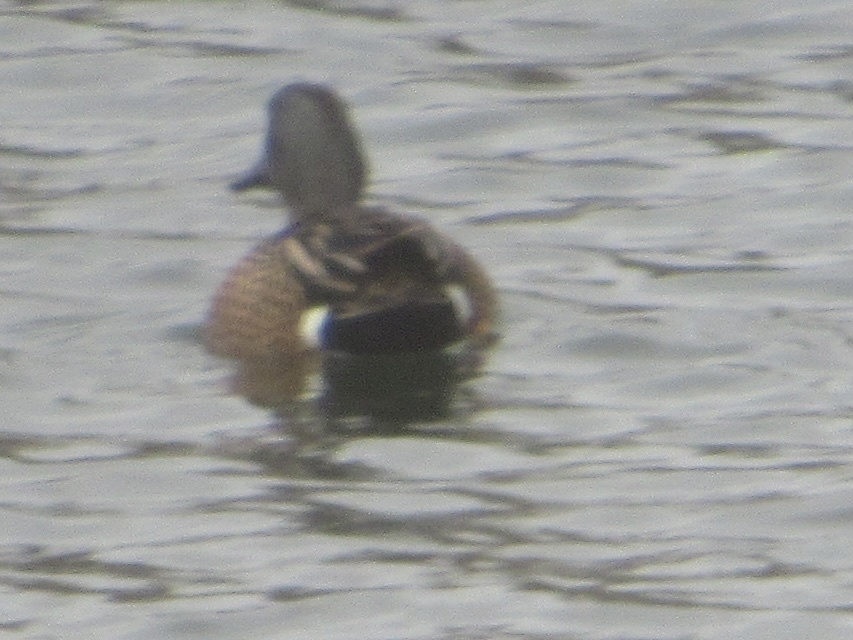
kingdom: Animalia
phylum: Chordata
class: Aves
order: Anseriformes
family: Anatidae
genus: Spatula
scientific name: Spatula discors
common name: Blue-winged teal
